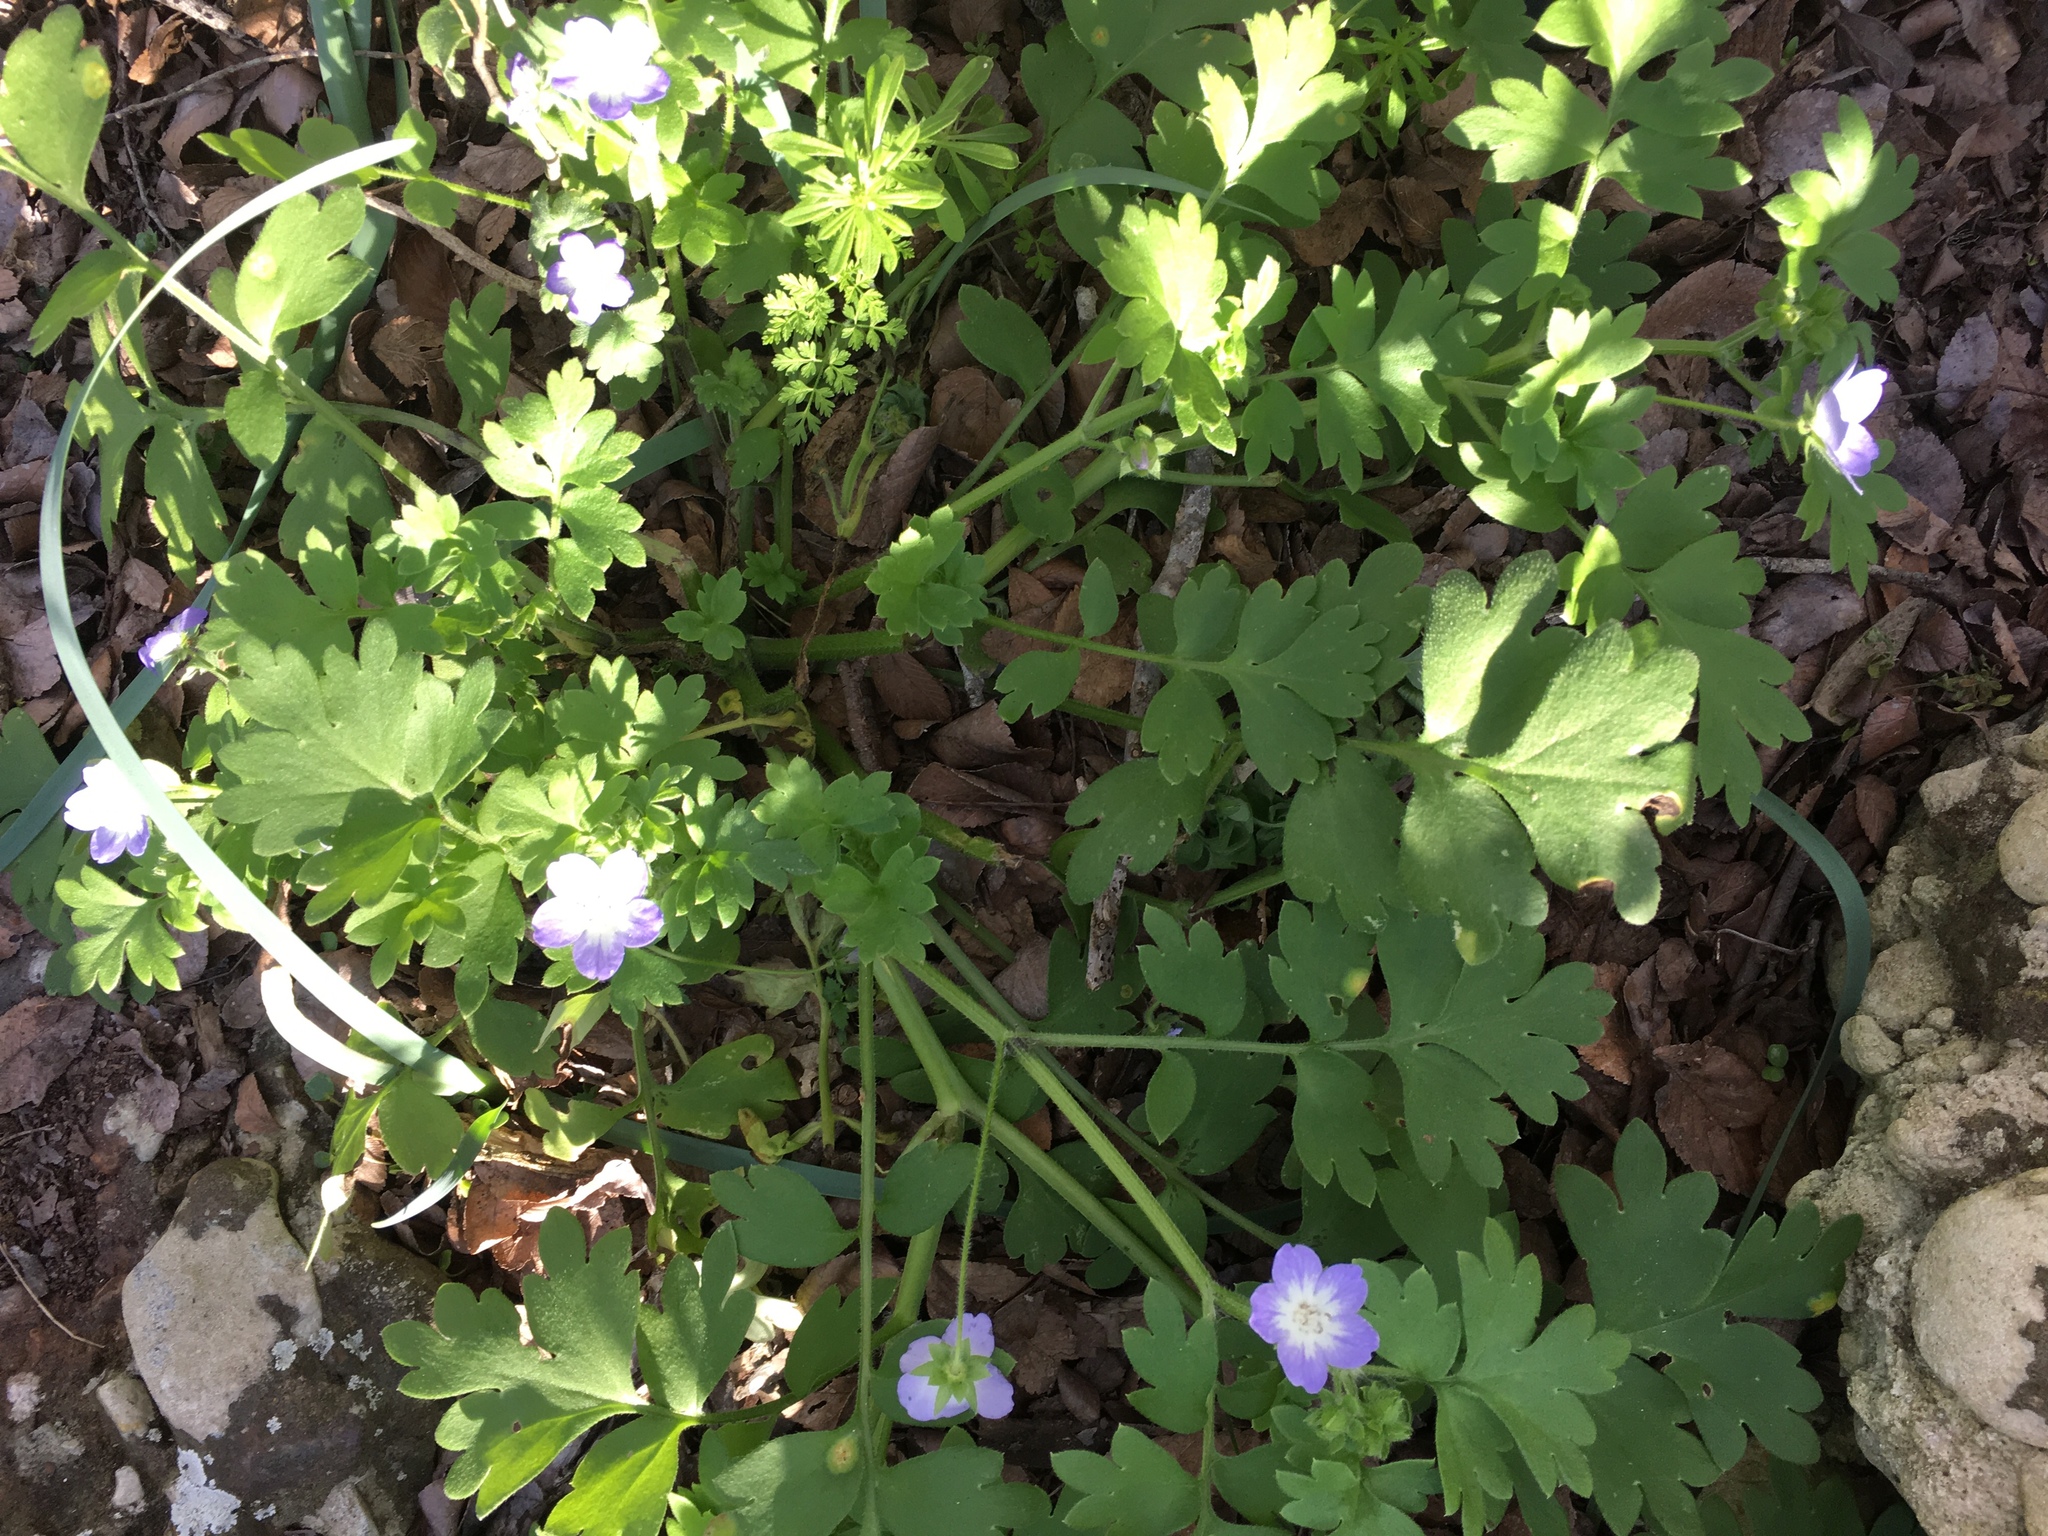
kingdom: Plantae
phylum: Tracheophyta
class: Magnoliopsida
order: Boraginales
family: Hydrophyllaceae
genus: Nemophila
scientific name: Nemophila phacelioides
